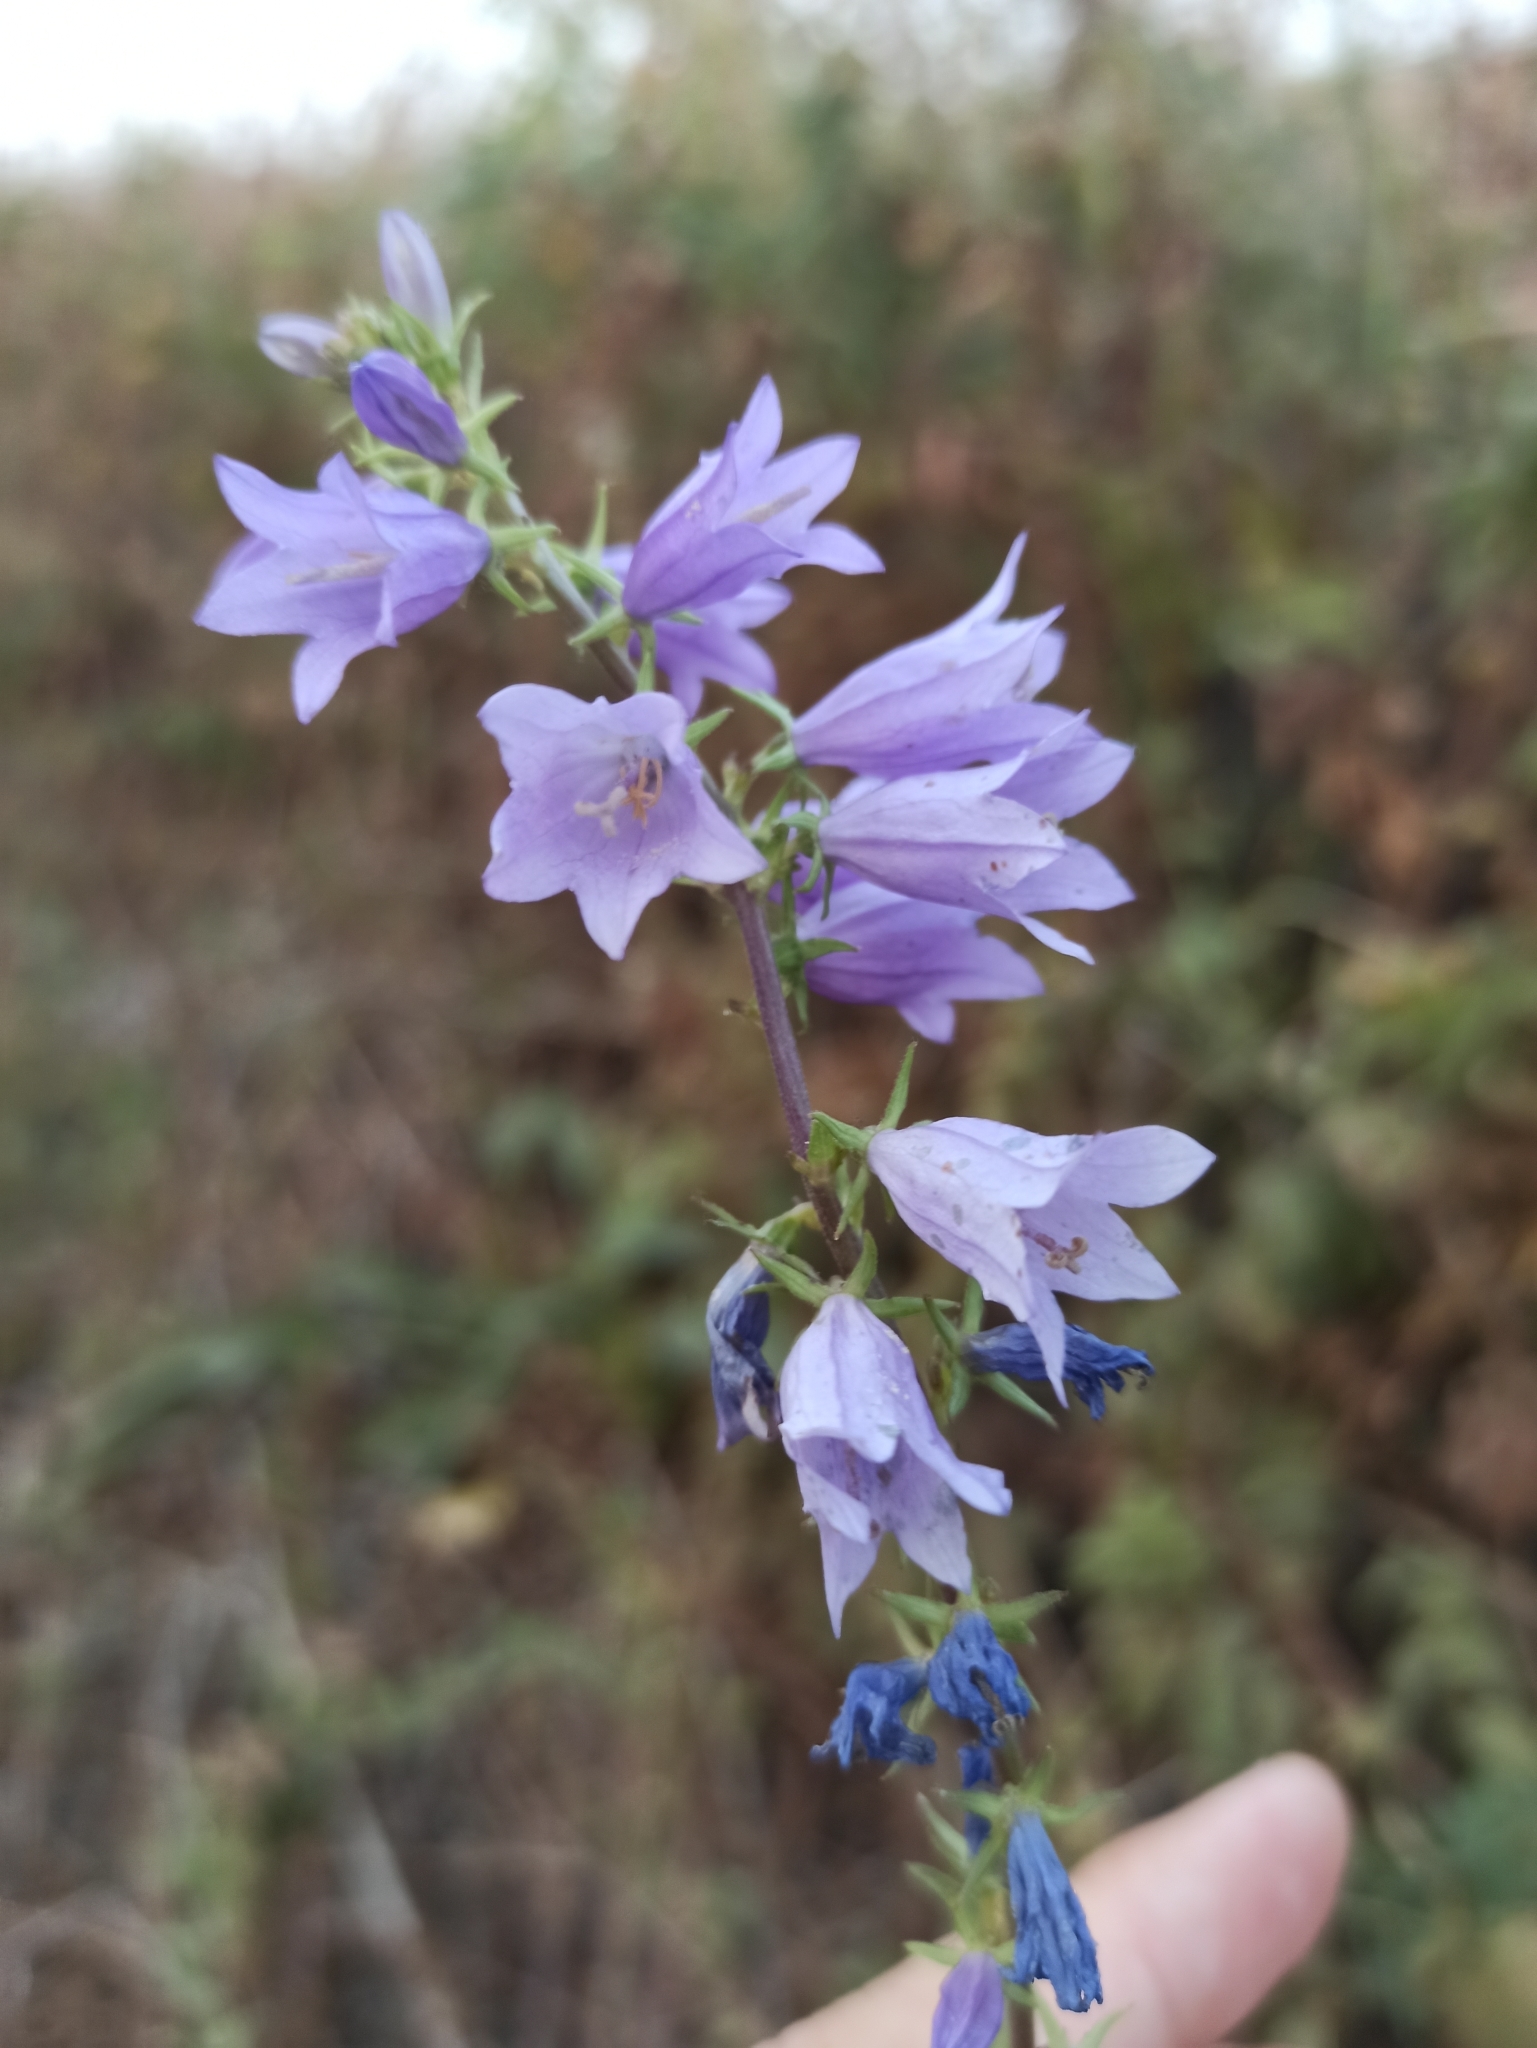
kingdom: Plantae
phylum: Tracheophyta
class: Magnoliopsida
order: Asterales
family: Campanulaceae
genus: Campanula
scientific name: Campanula bononiensis
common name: Pale bellflower
